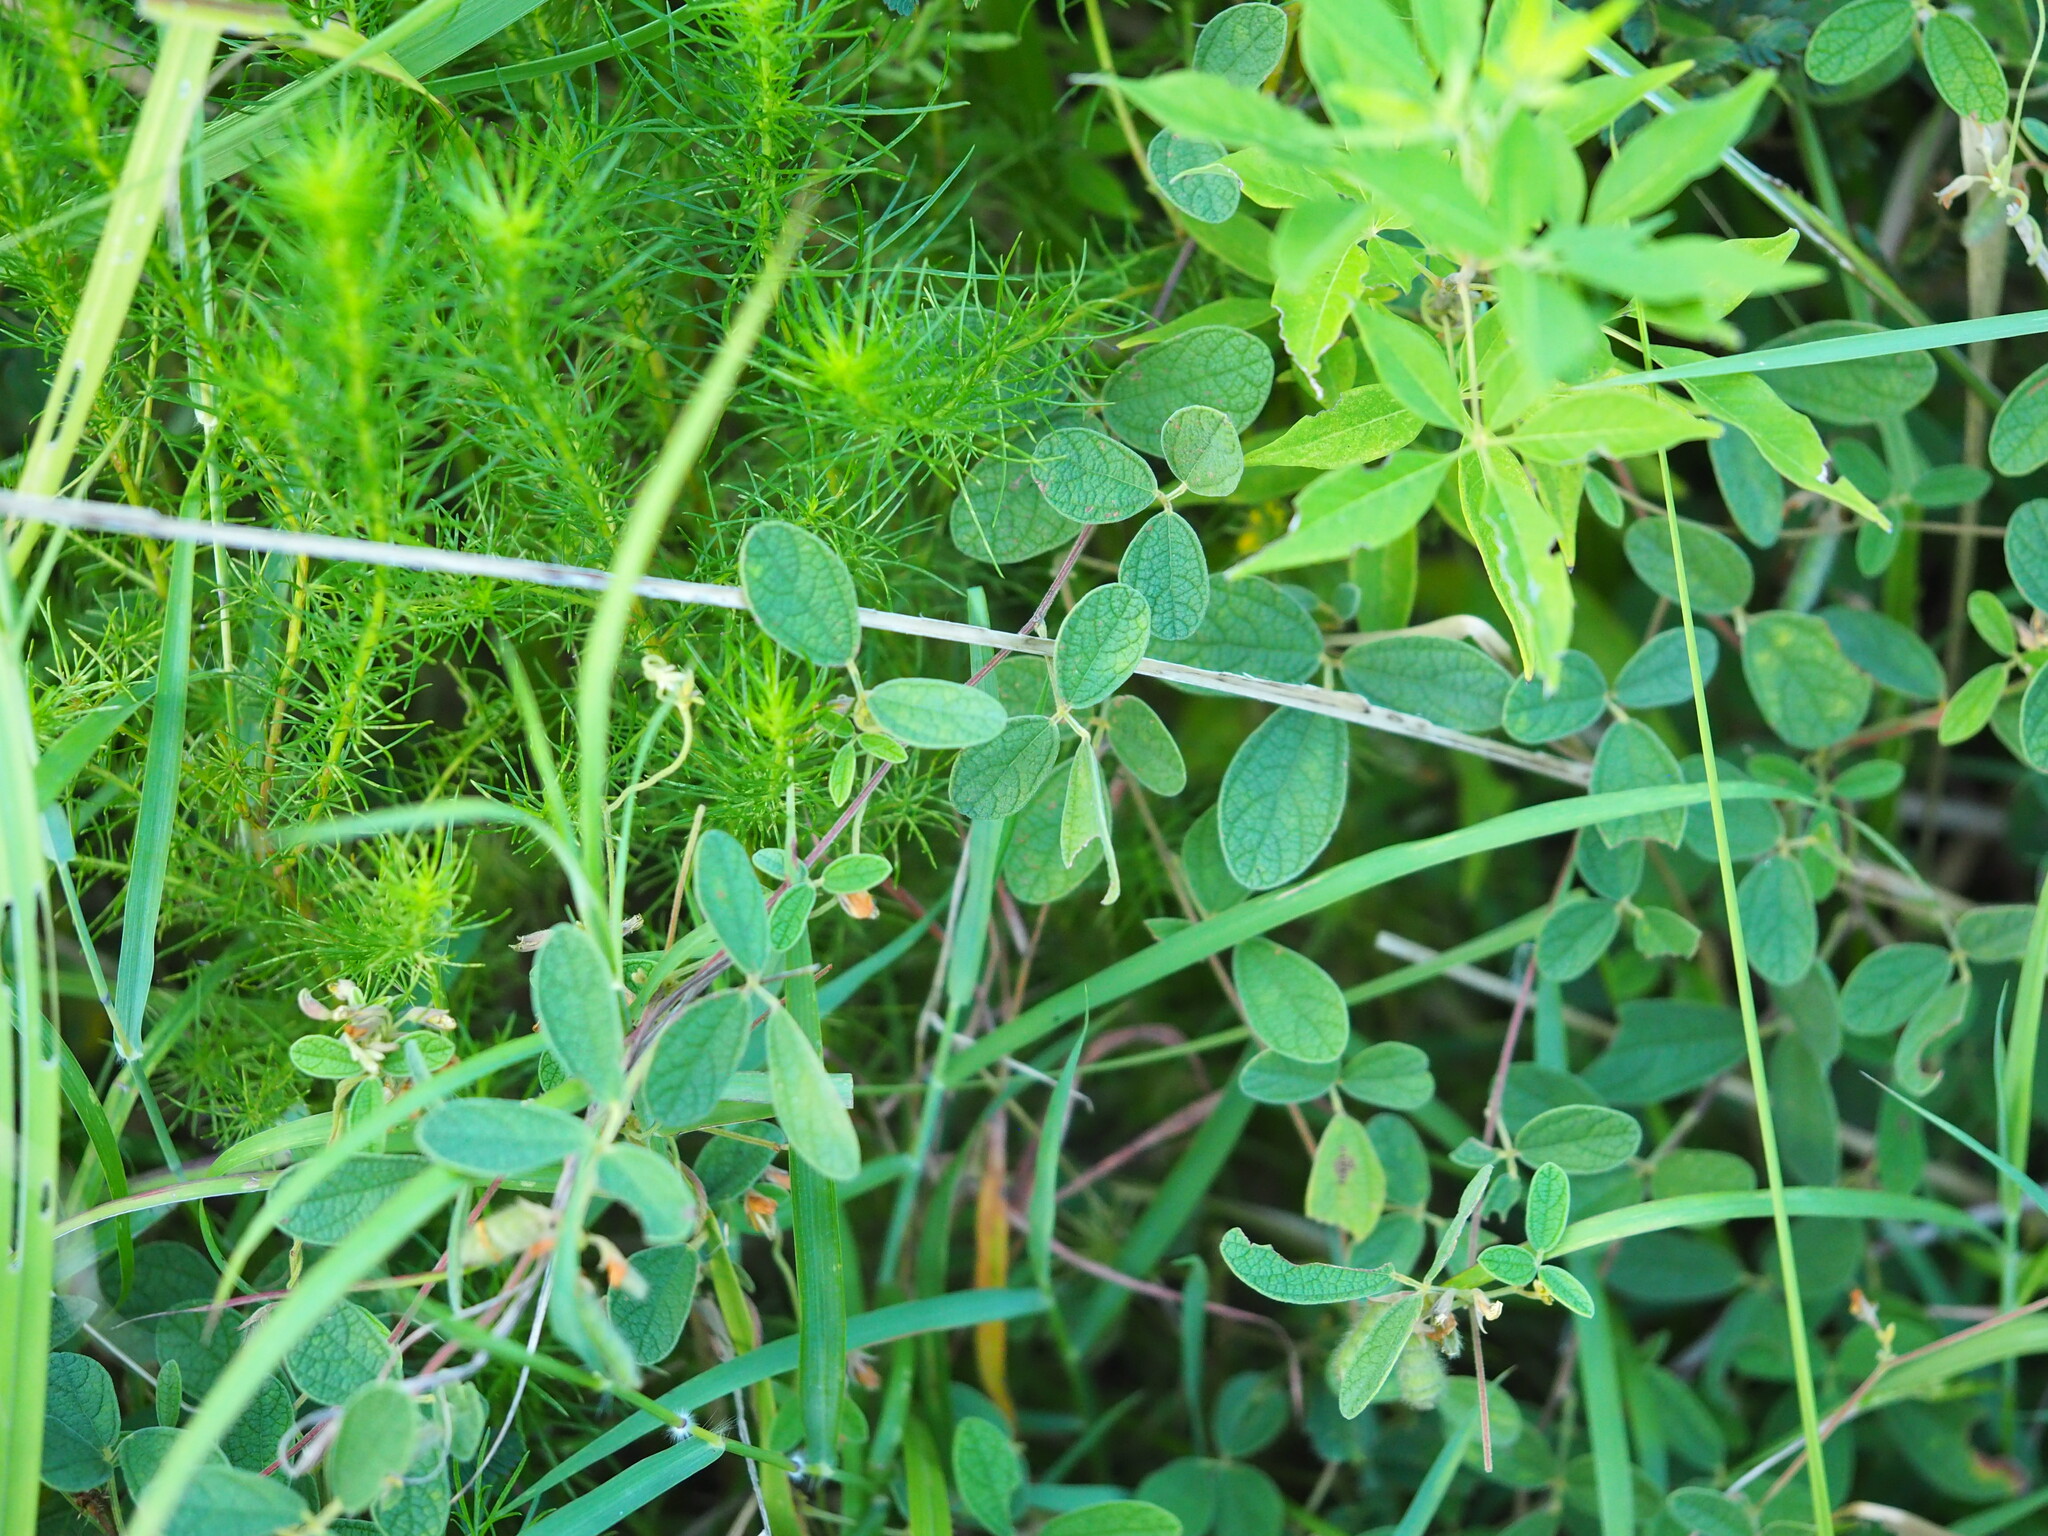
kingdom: Plantae
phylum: Tracheophyta
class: Magnoliopsida
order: Fabales
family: Fabaceae
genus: Cajanus
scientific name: Cajanus scarabaeoides
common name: Showy pigeonpea
